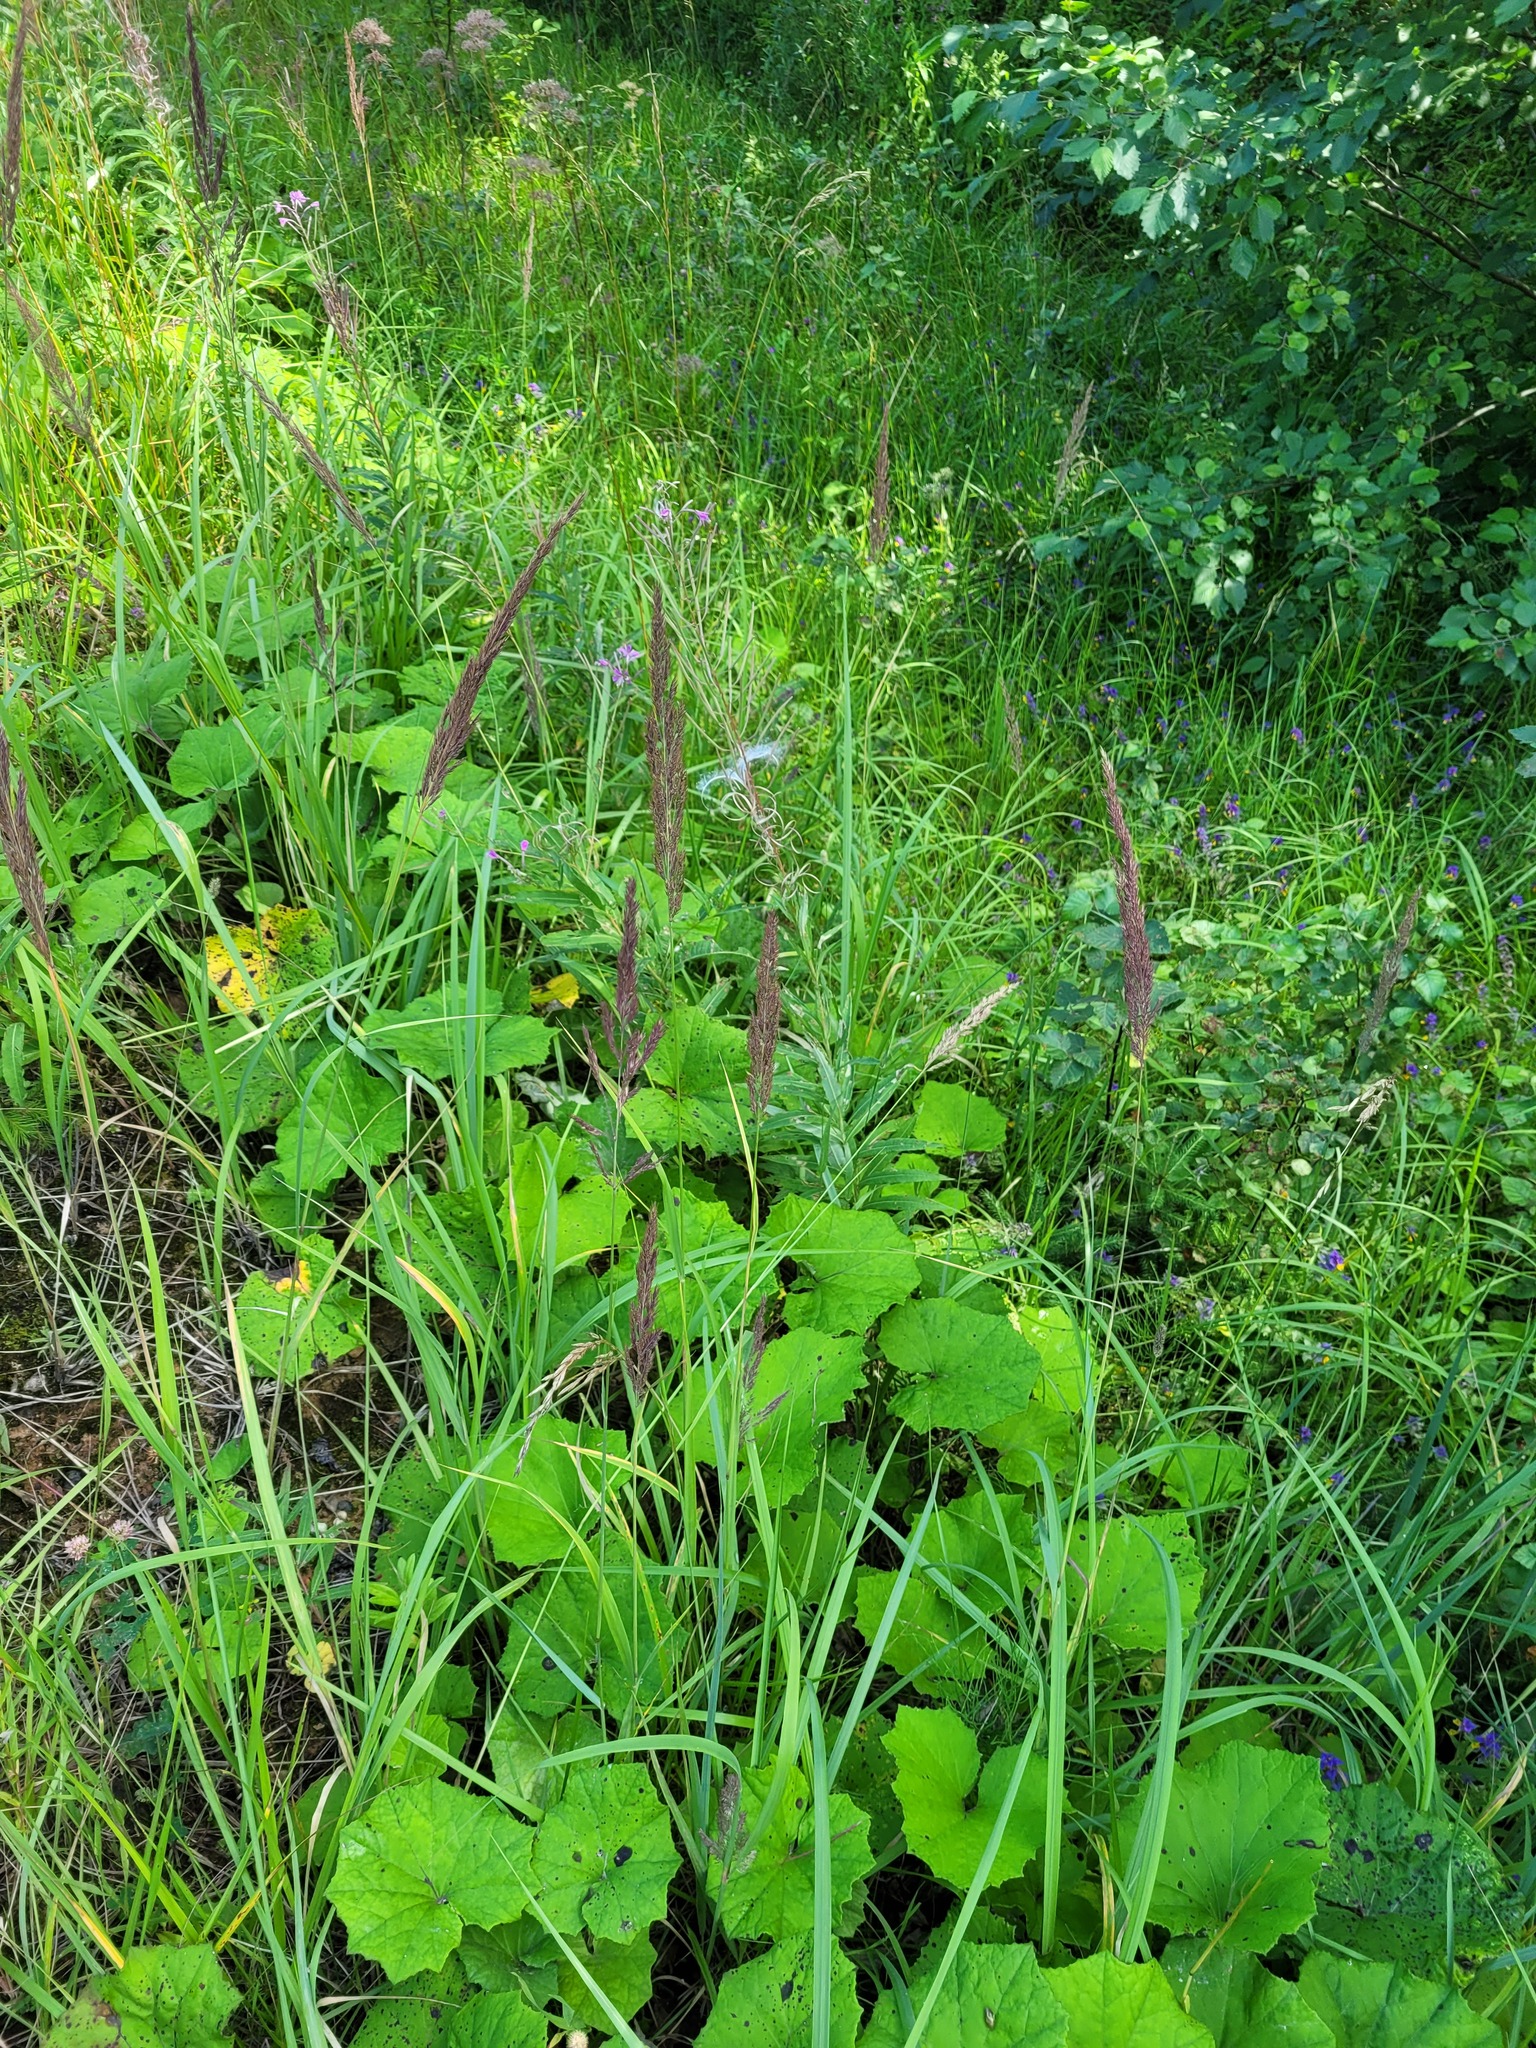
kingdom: Plantae
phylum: Tracheophyta
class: Liliopsida
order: Poales
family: Poaceae
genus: Calamagrostis
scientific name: Calamagrostis epigejos
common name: Wood small-reed
